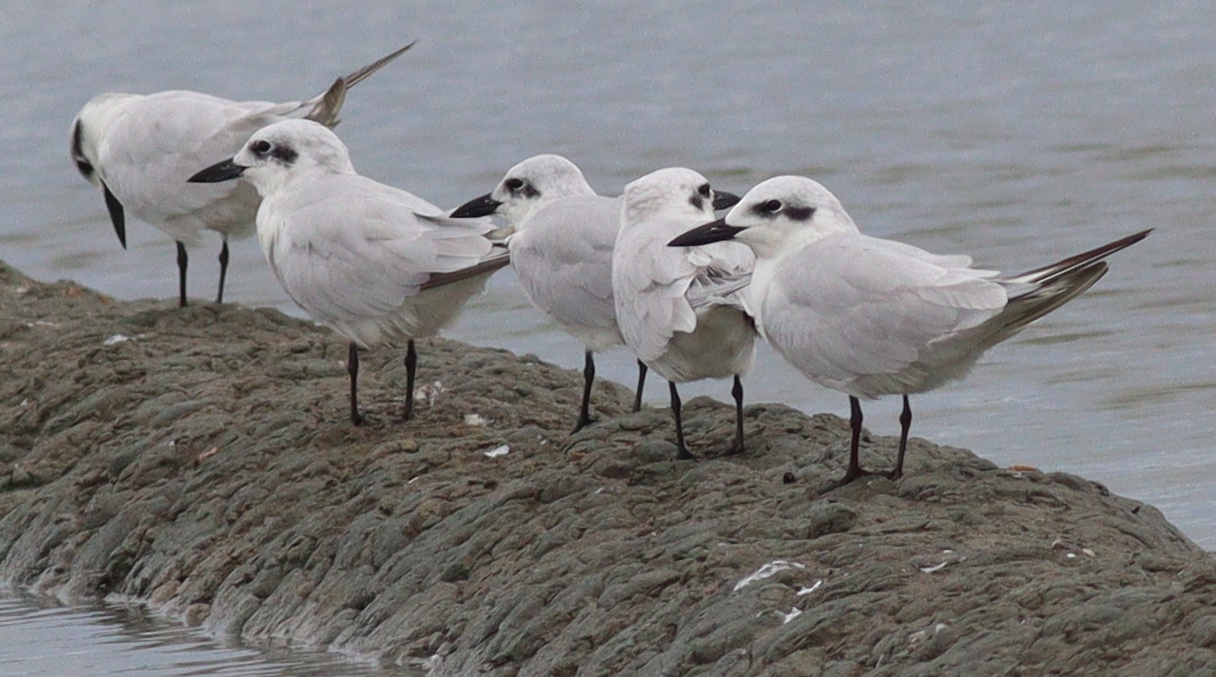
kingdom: Animalia
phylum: Chordata
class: Aves
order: Charadriiformes
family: Laridae
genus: Gelochelidon
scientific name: Gelochelidon nilotica
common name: Gull-billed tern
